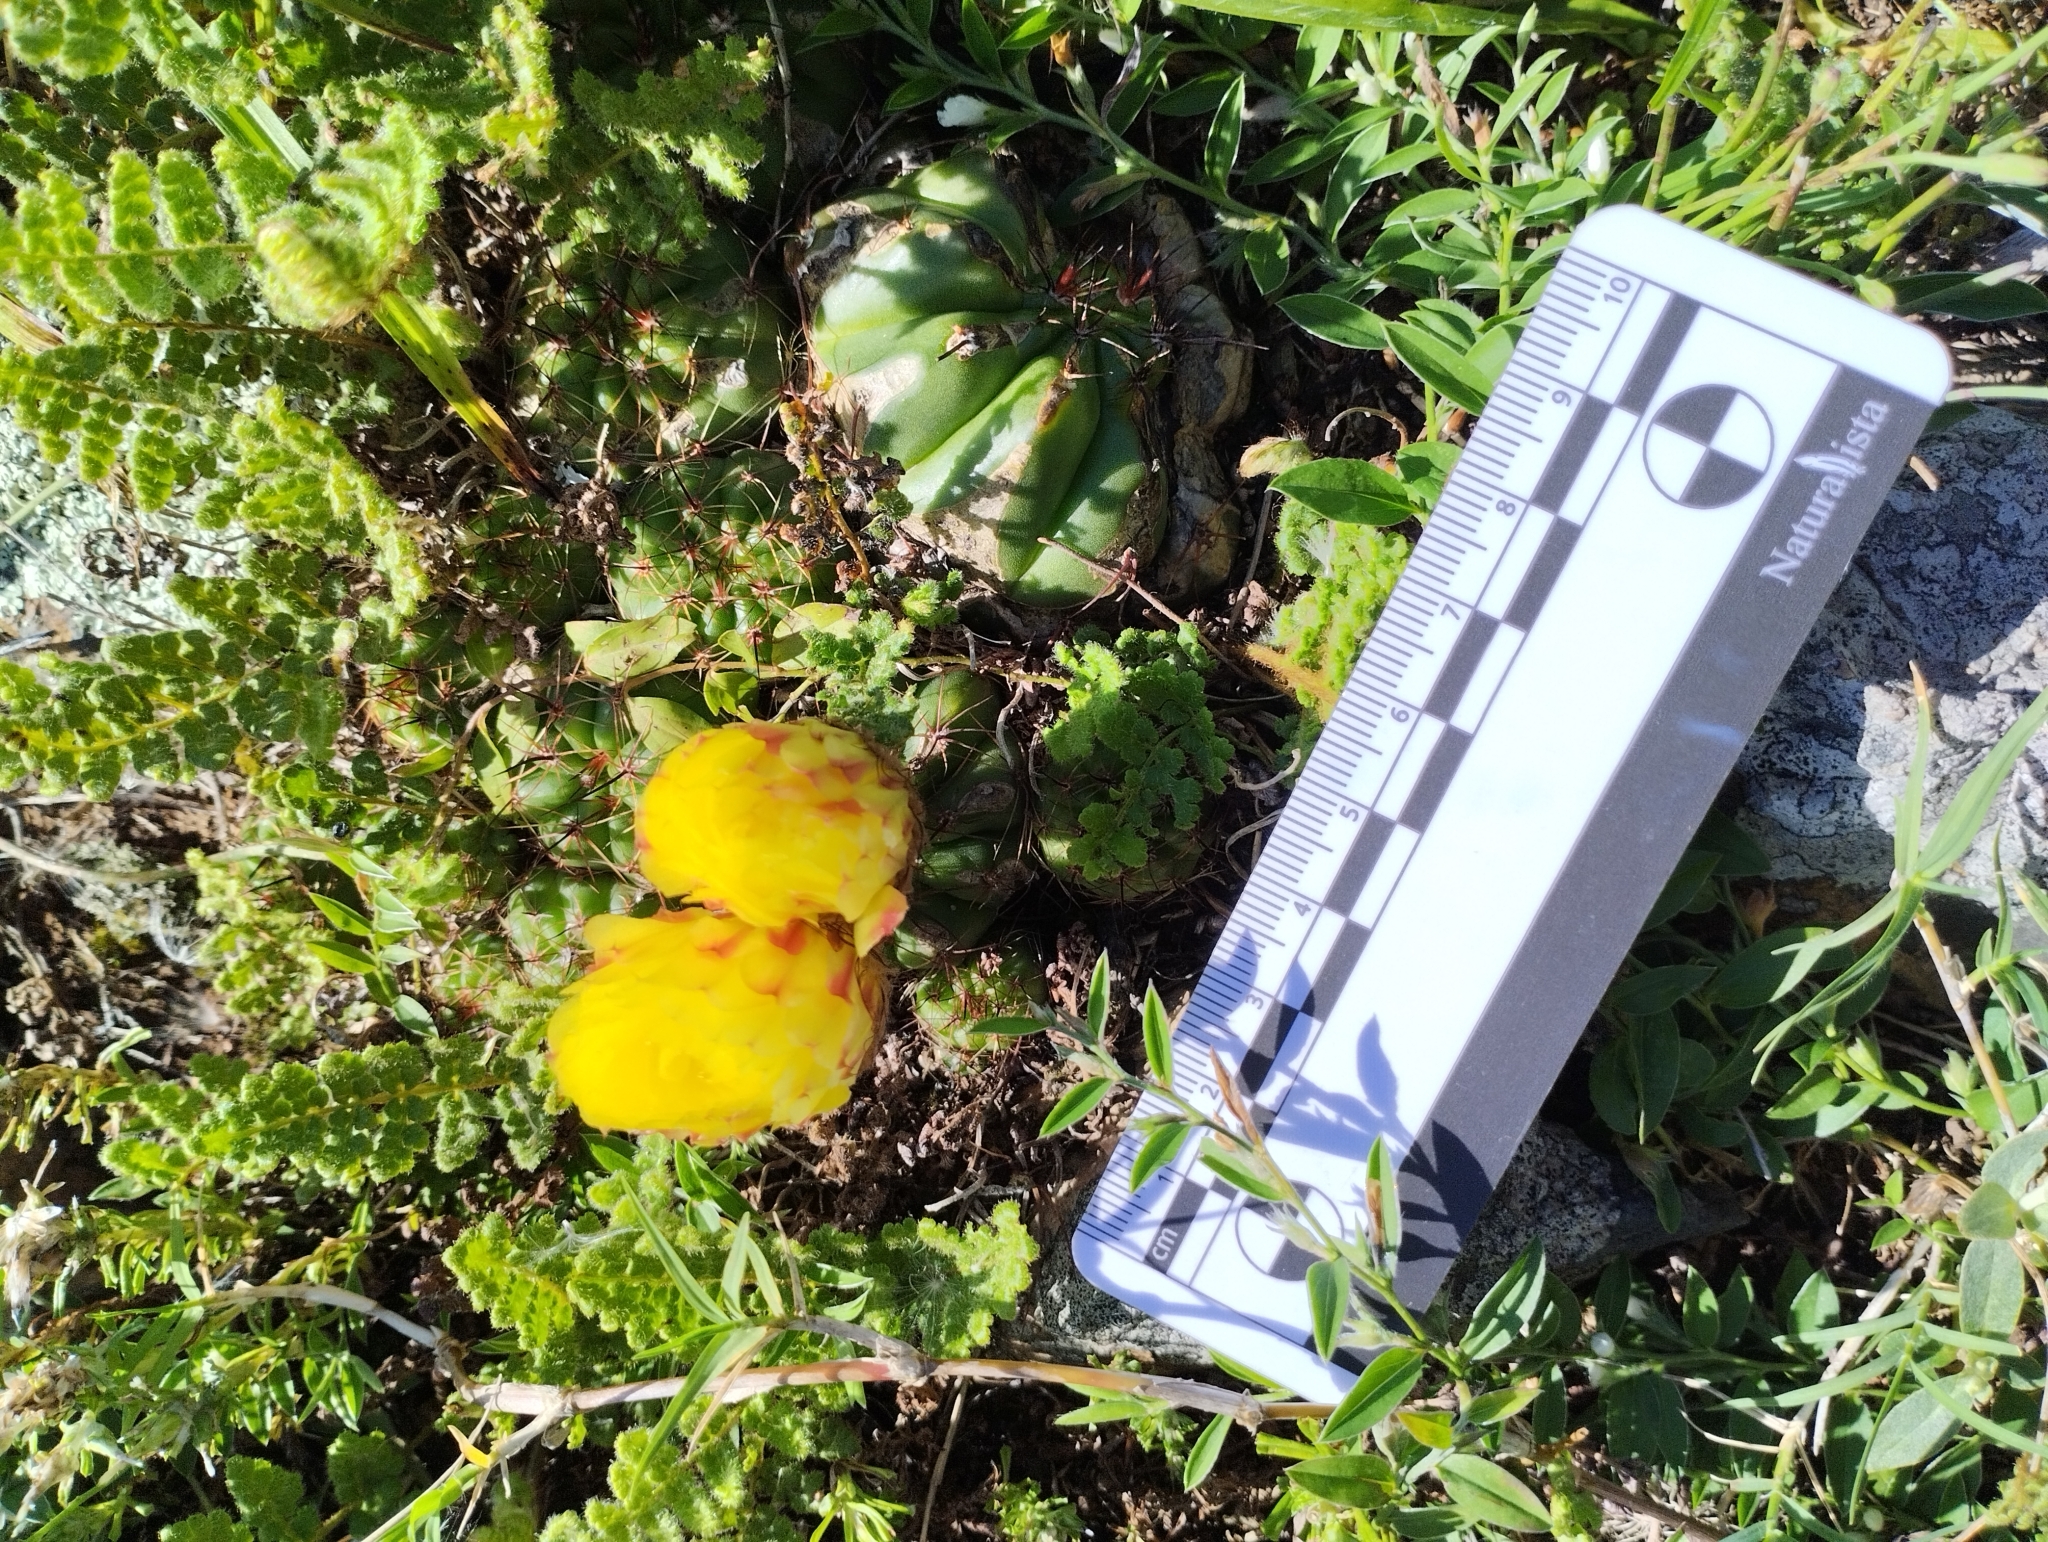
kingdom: Plantae
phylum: Tracheophyta
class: Magnoliopsida
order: Caryophyllales
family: Cactaceae
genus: Parodia
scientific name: Parodia ottonis
